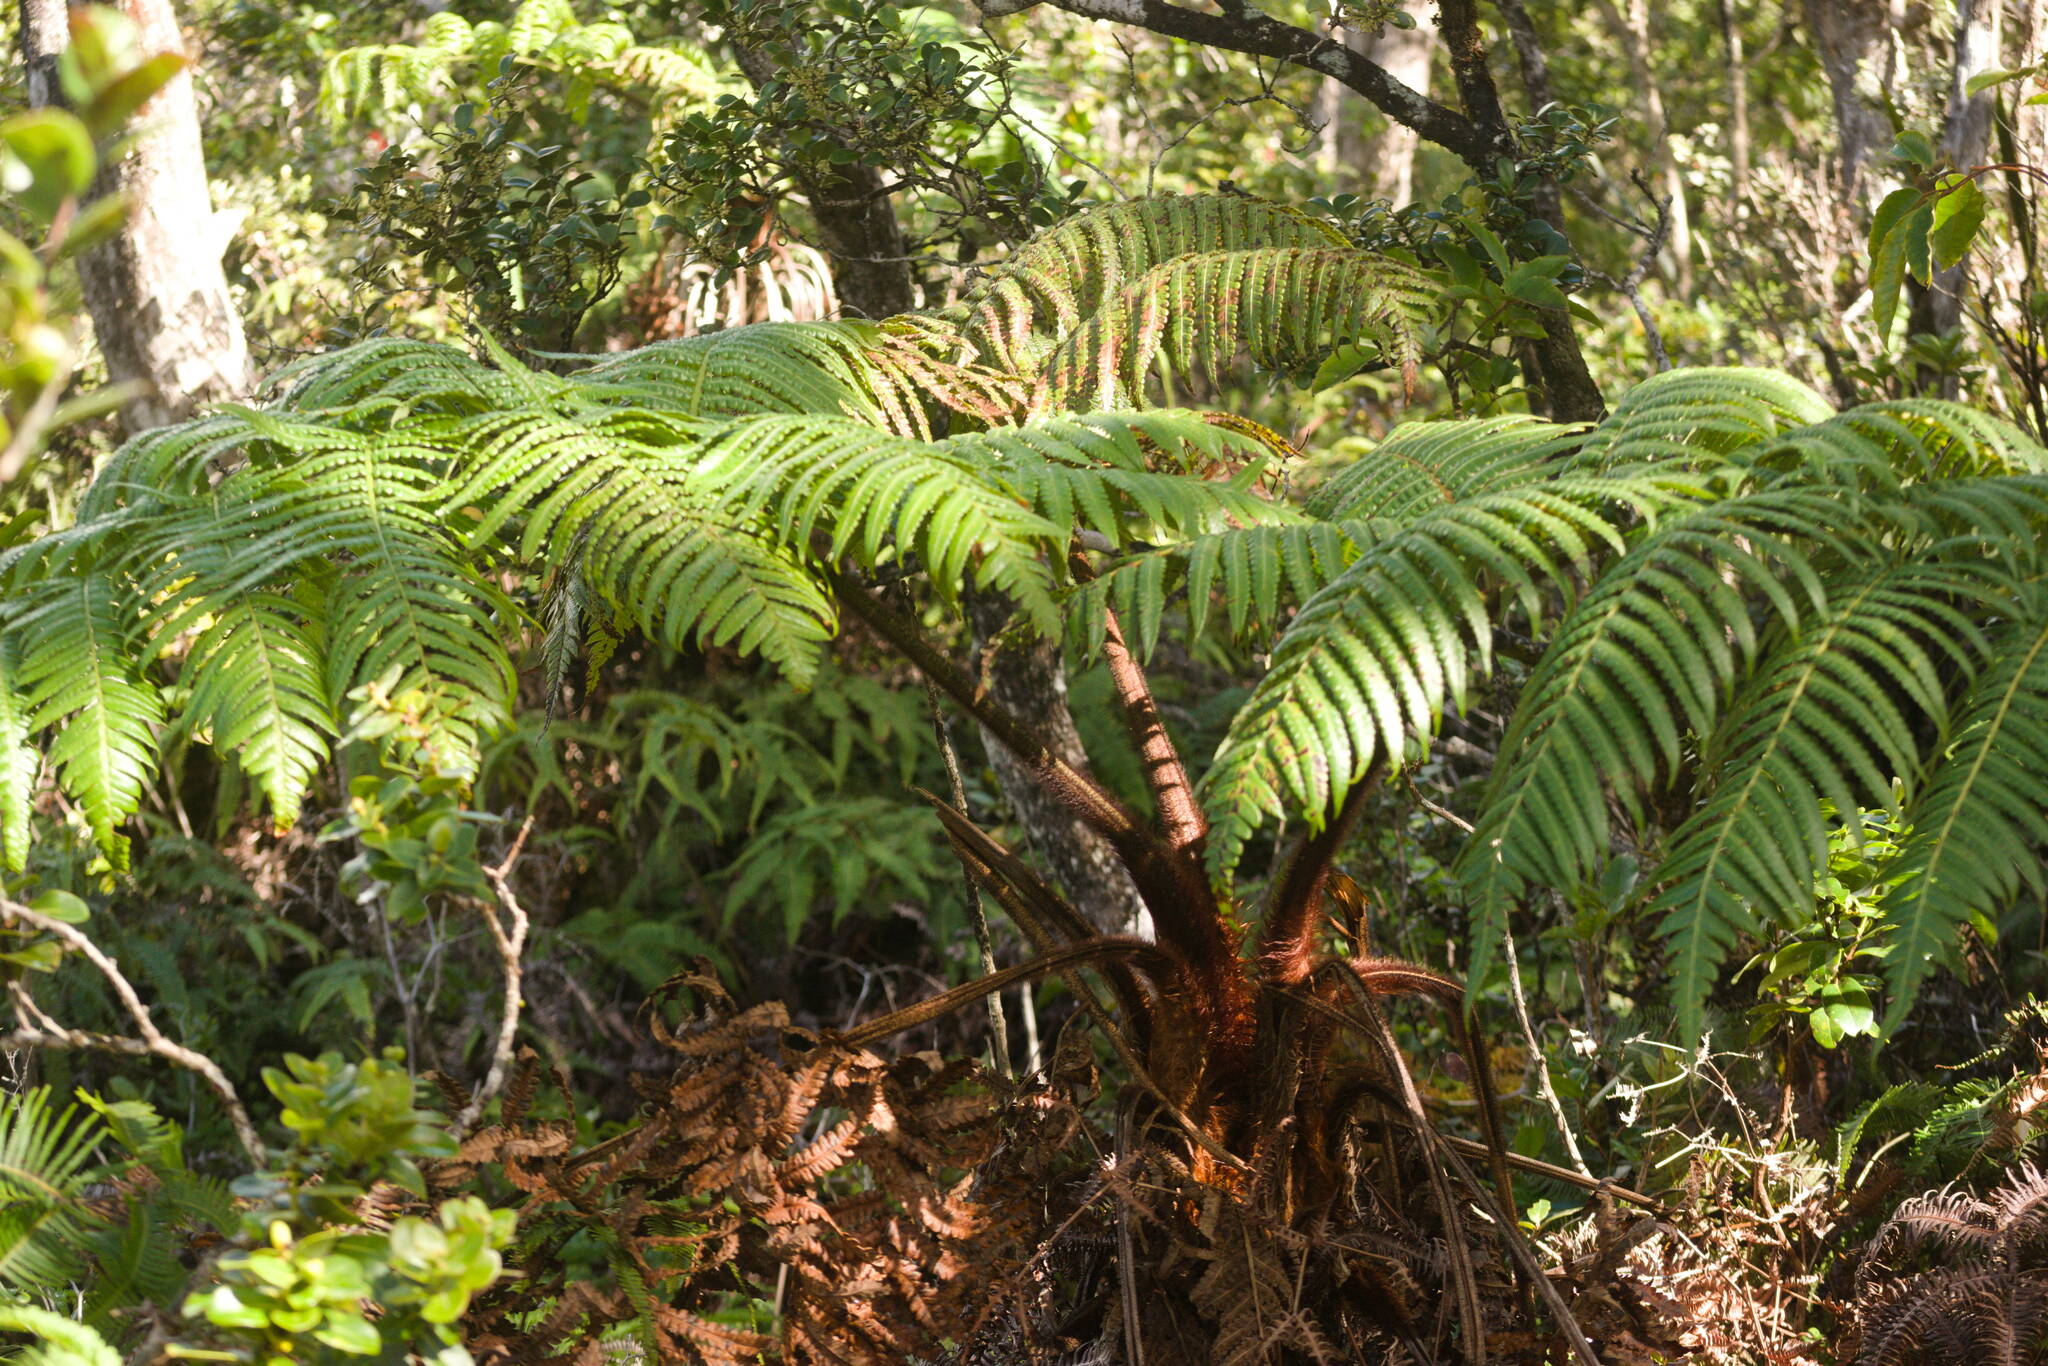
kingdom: Plantae
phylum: Tracheophyta
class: Polypodiopsida
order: Cyatheales
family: Cibotiaceae
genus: Cibotium
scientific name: Cibotium menziesii
